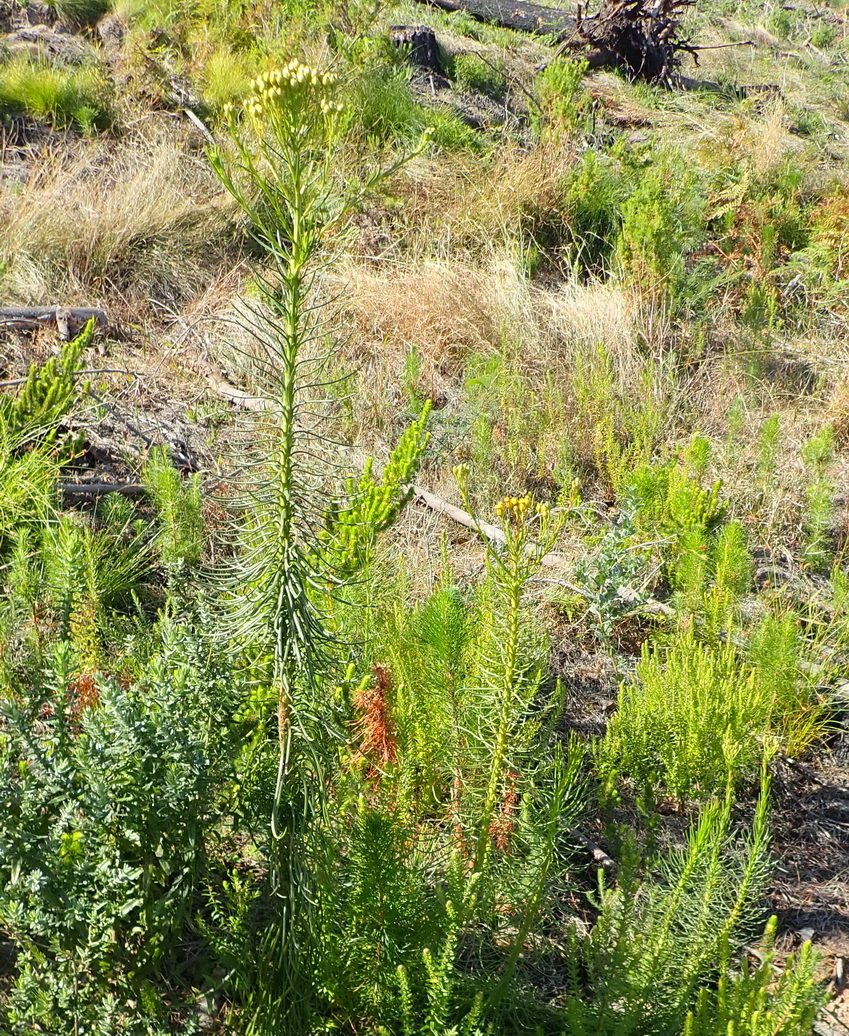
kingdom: Plantae
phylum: Tracheophyta
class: Magnoliopsida
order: Asterales
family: Asteraceae
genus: Athanasia
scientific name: Athanasia linifolia
